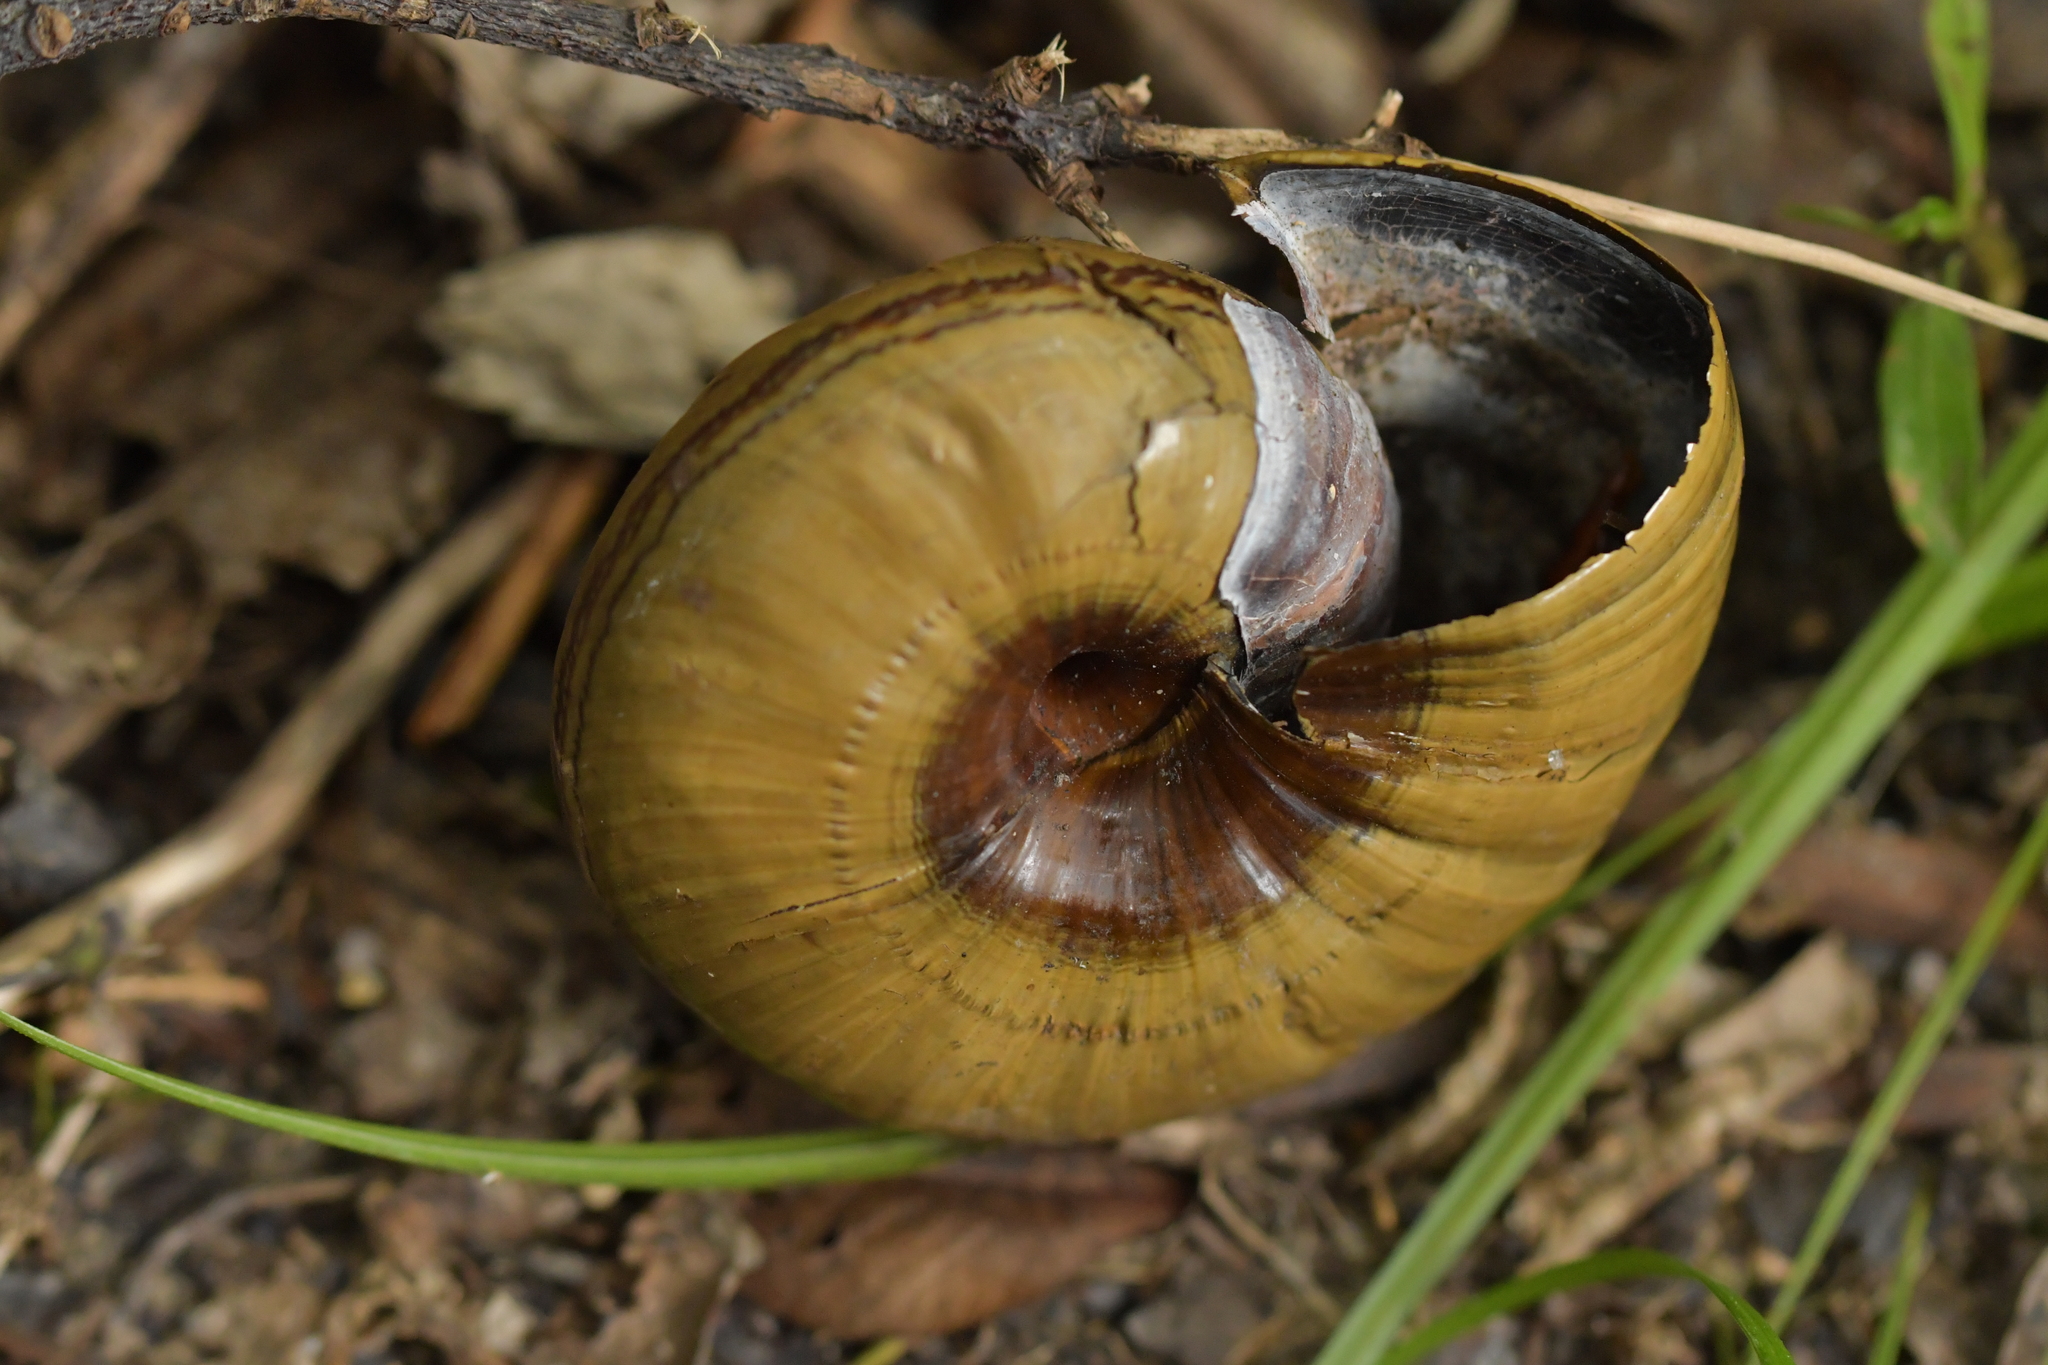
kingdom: Animalia
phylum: Mollusca
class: Gastropoda
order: Stylommatophora
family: Rhytididae
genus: Powelliphanta
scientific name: Powelliphanta hochstetteri
